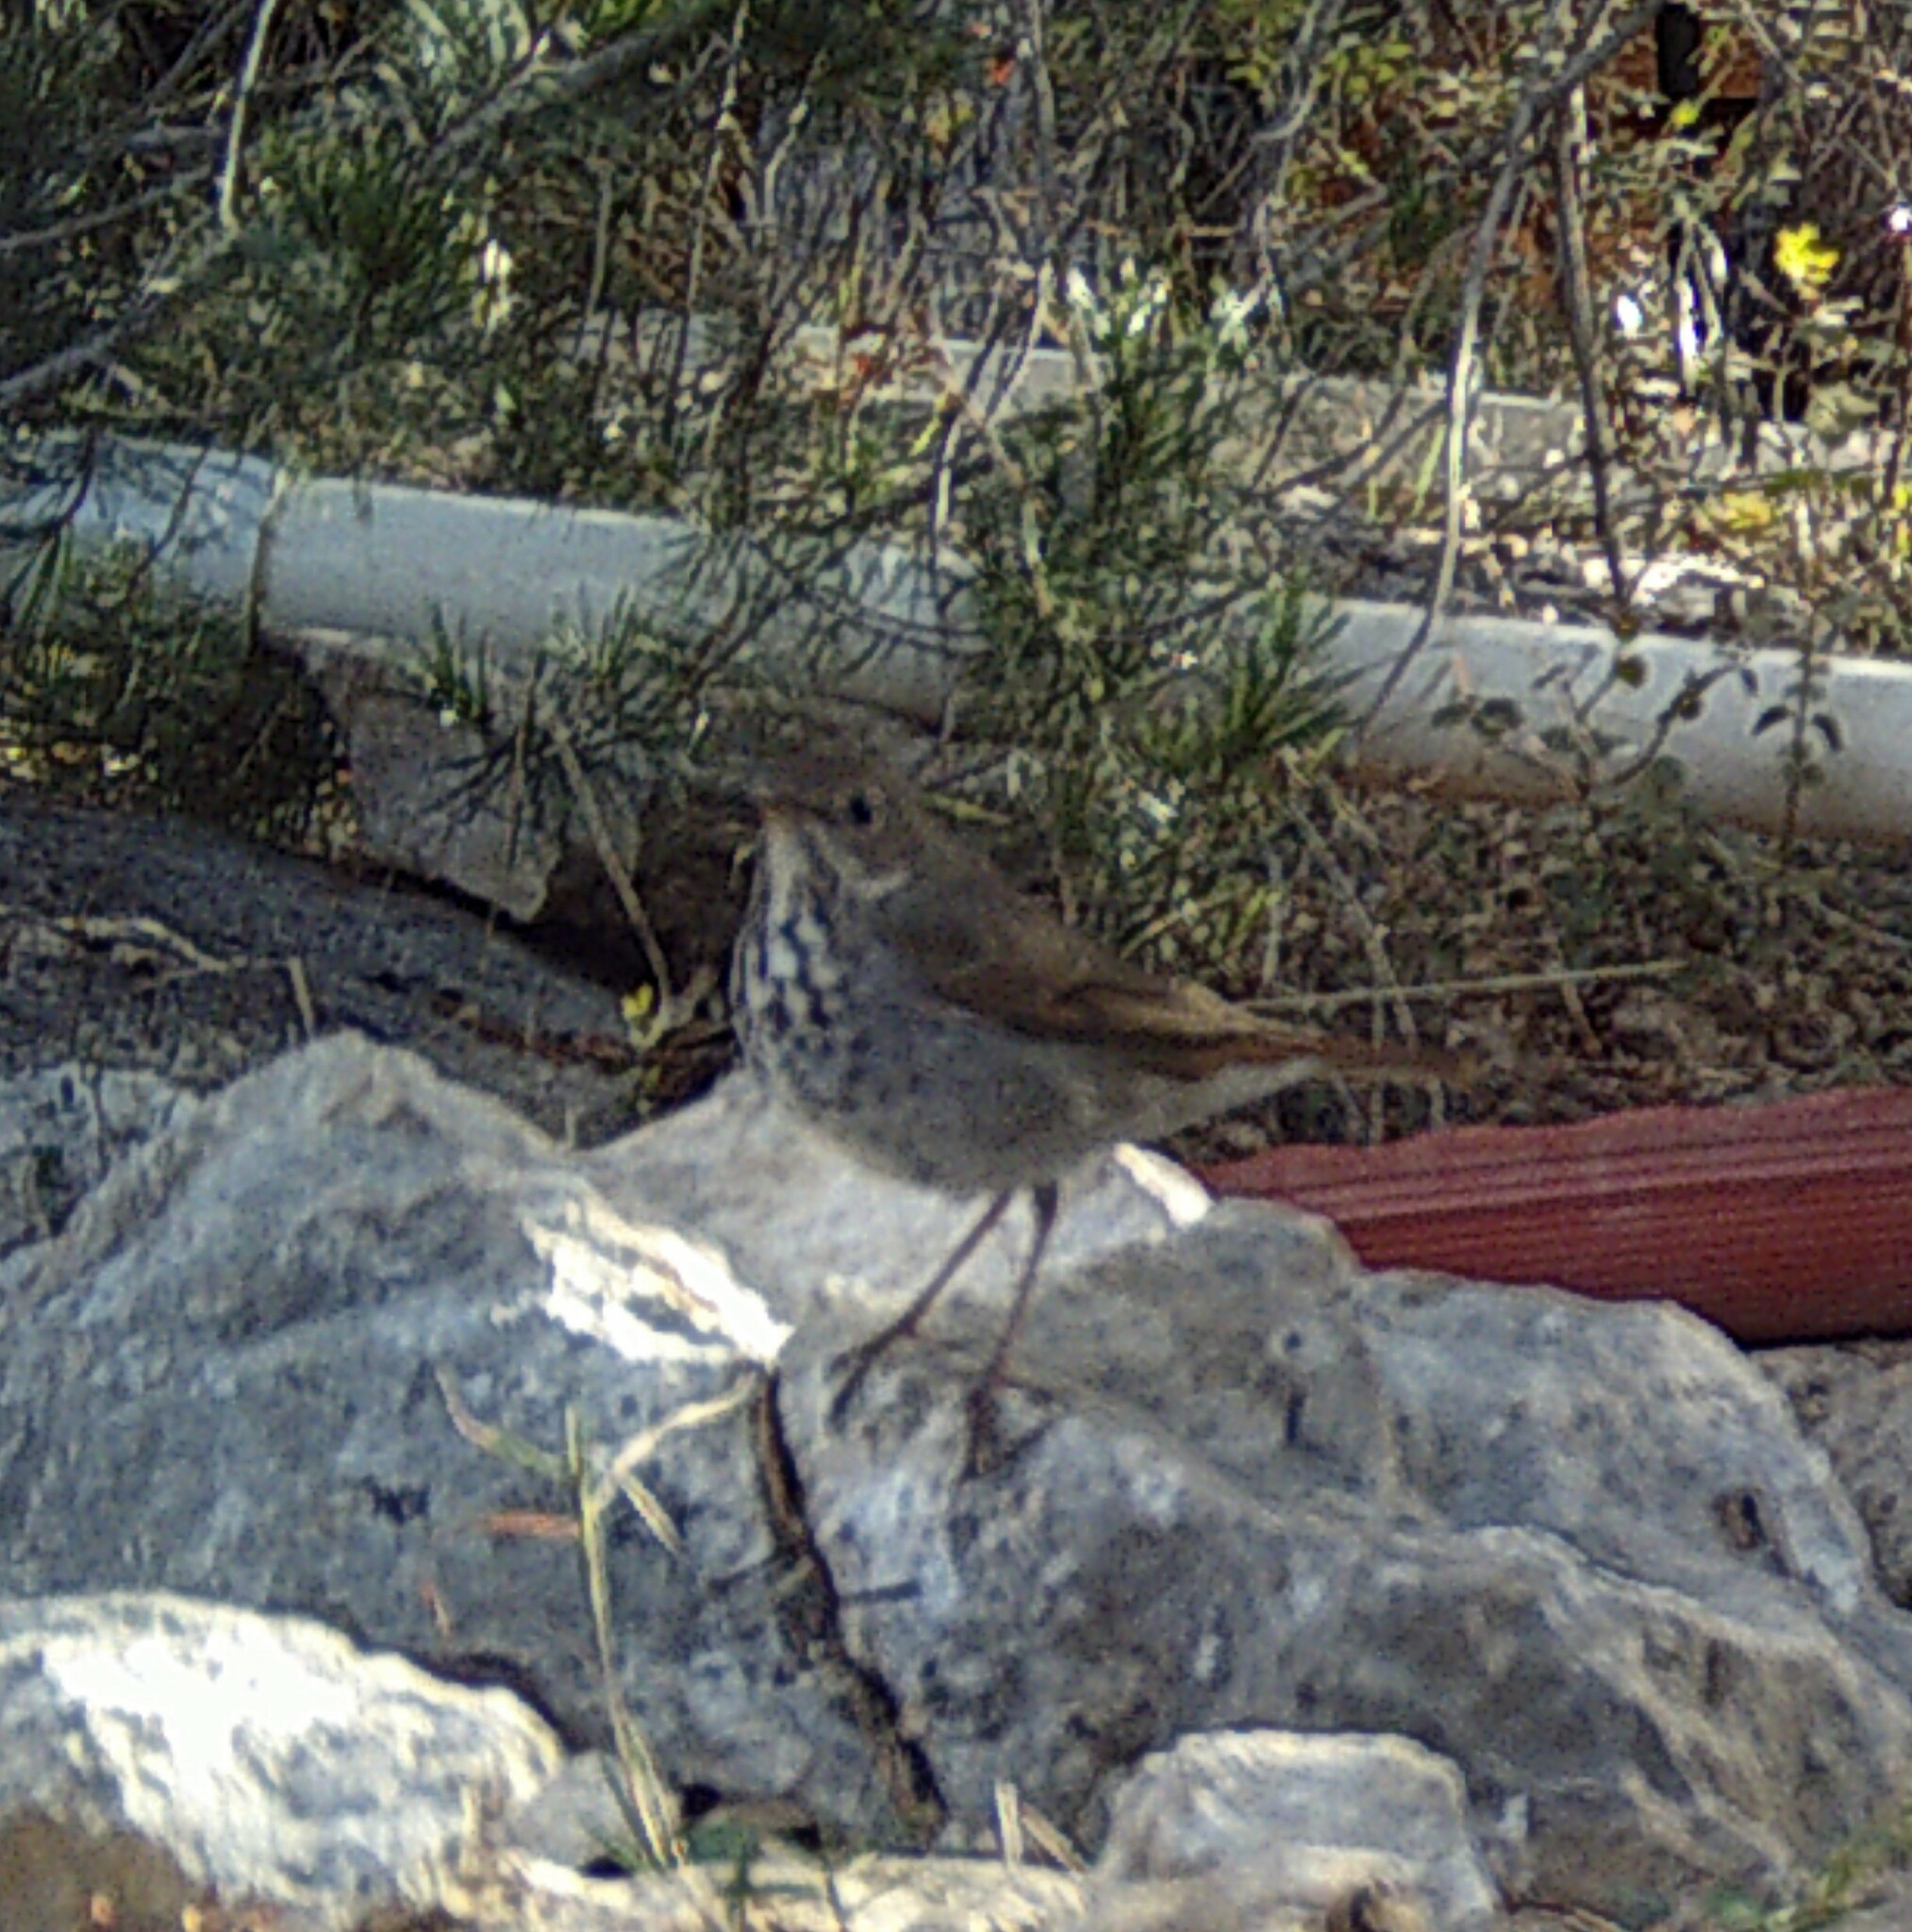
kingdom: Animalia
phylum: Chordata
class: Aves
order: Passeriformes
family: Turdidae
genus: Catharus
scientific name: Catharus guttatus
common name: Hermit thrush
